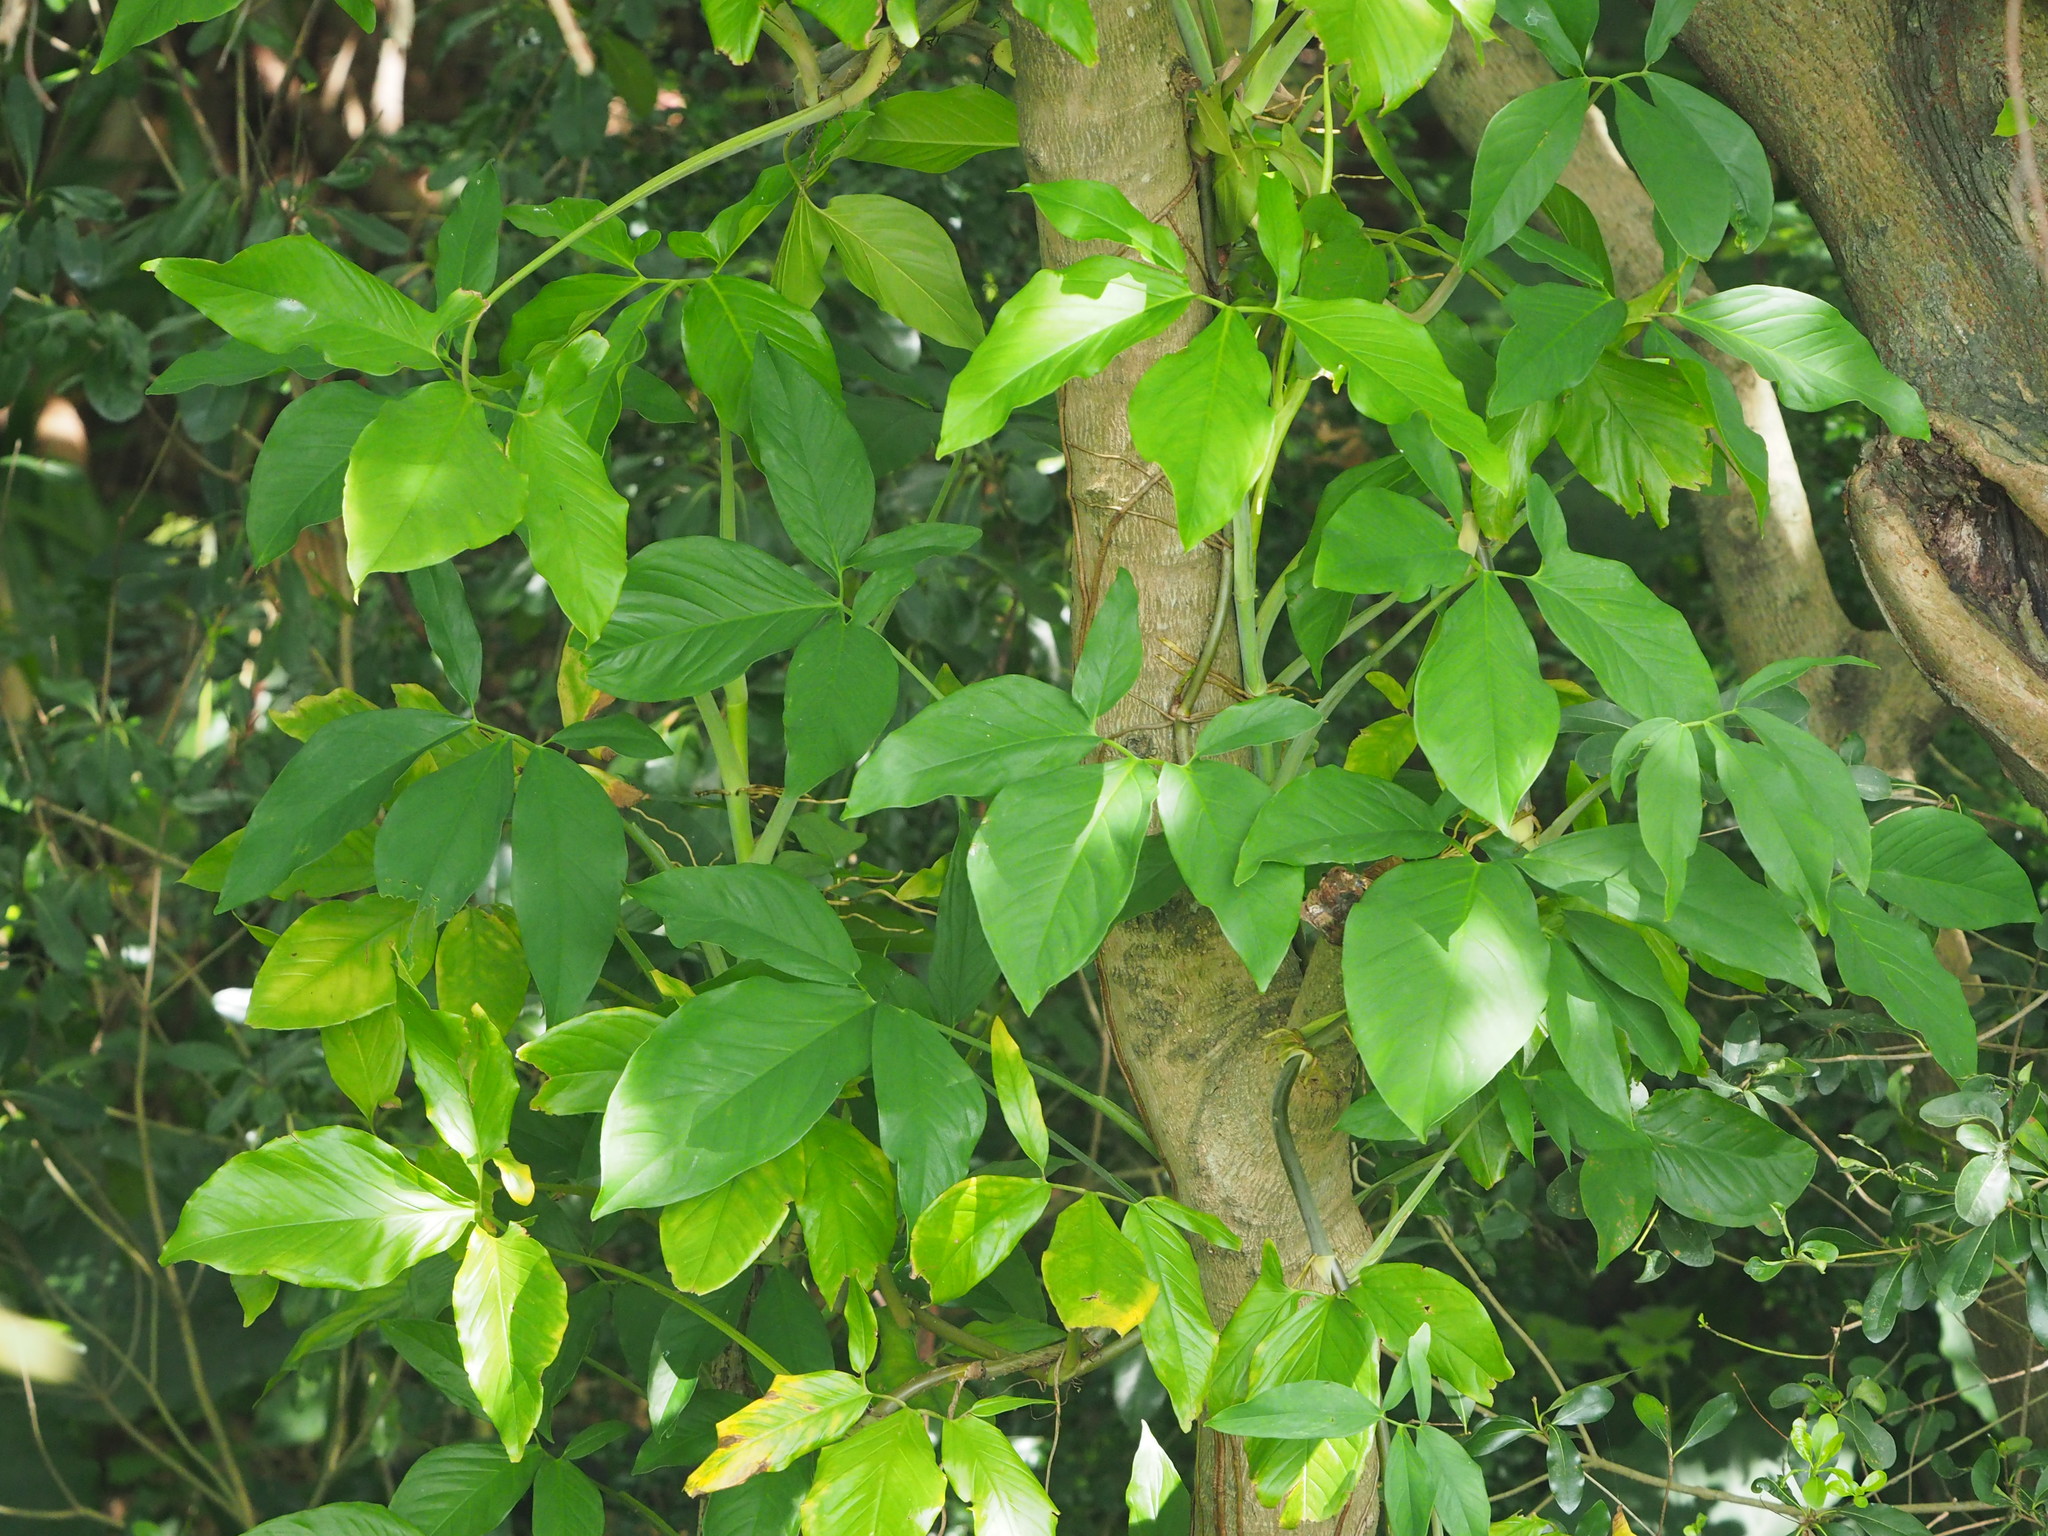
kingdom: Plantae
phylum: Tracheophyta
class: Liliopsida
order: Alismatales
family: Araceae
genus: Syngonium
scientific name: Syngonium angustatum
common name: Fivefingers
